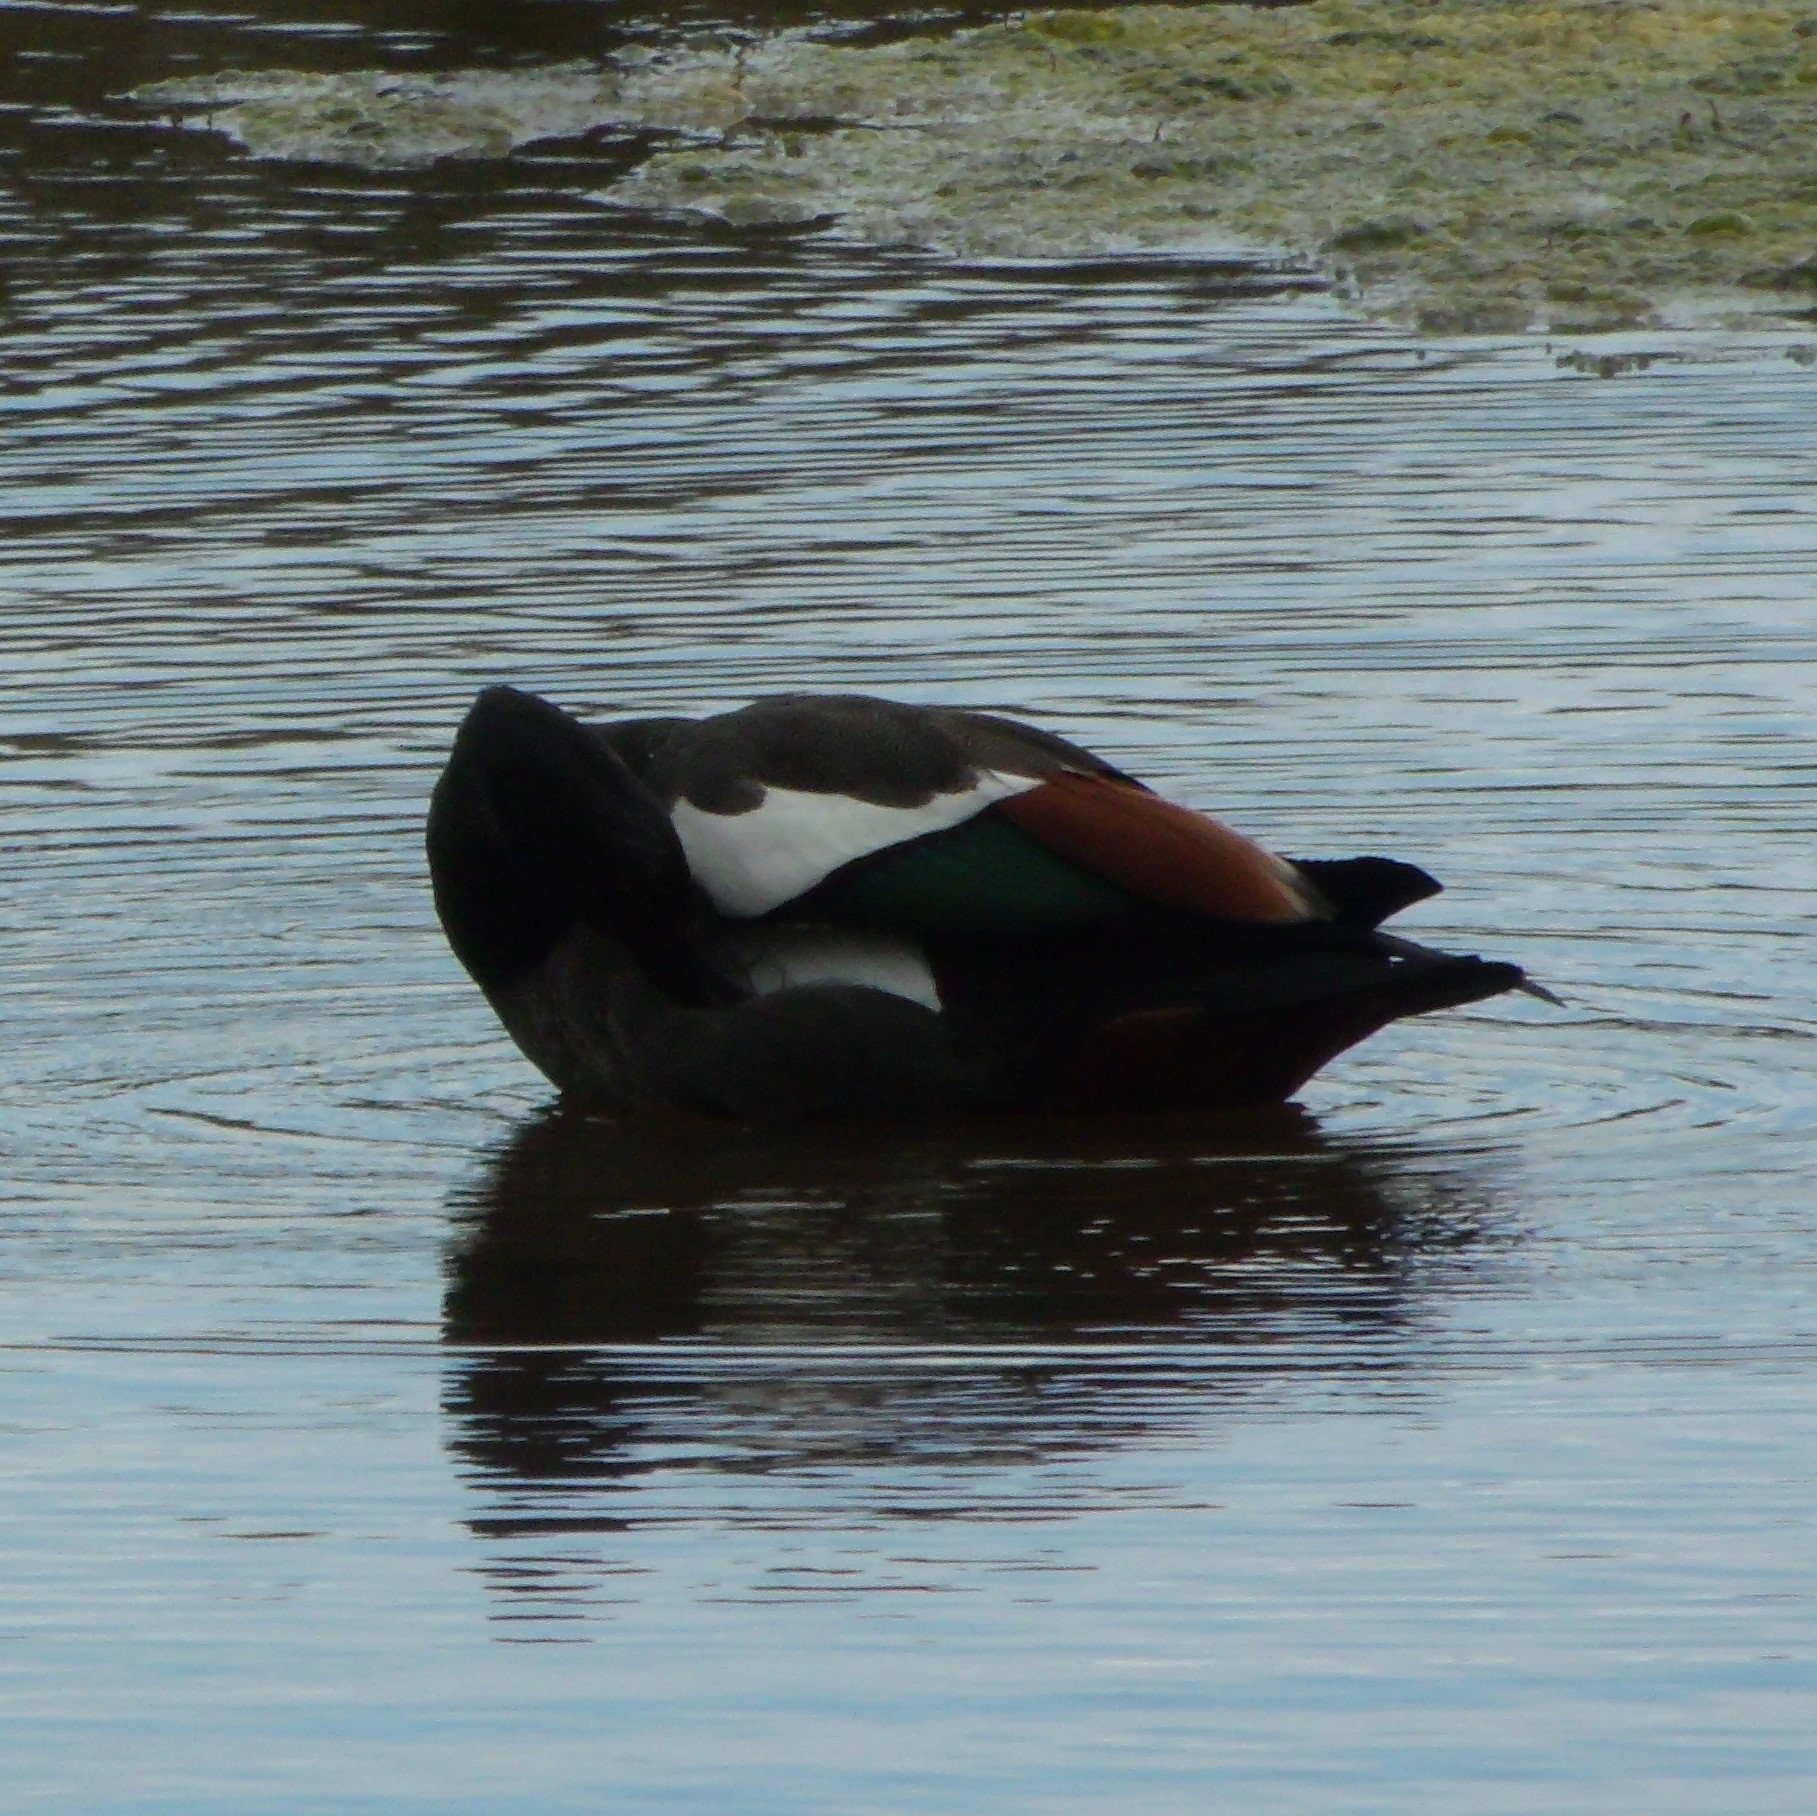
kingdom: Animalia
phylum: Chordata
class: Aves
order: Anseriformes
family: Anatidae
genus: Tadorna
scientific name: Tadorna variegata
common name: Paradise shelduck
